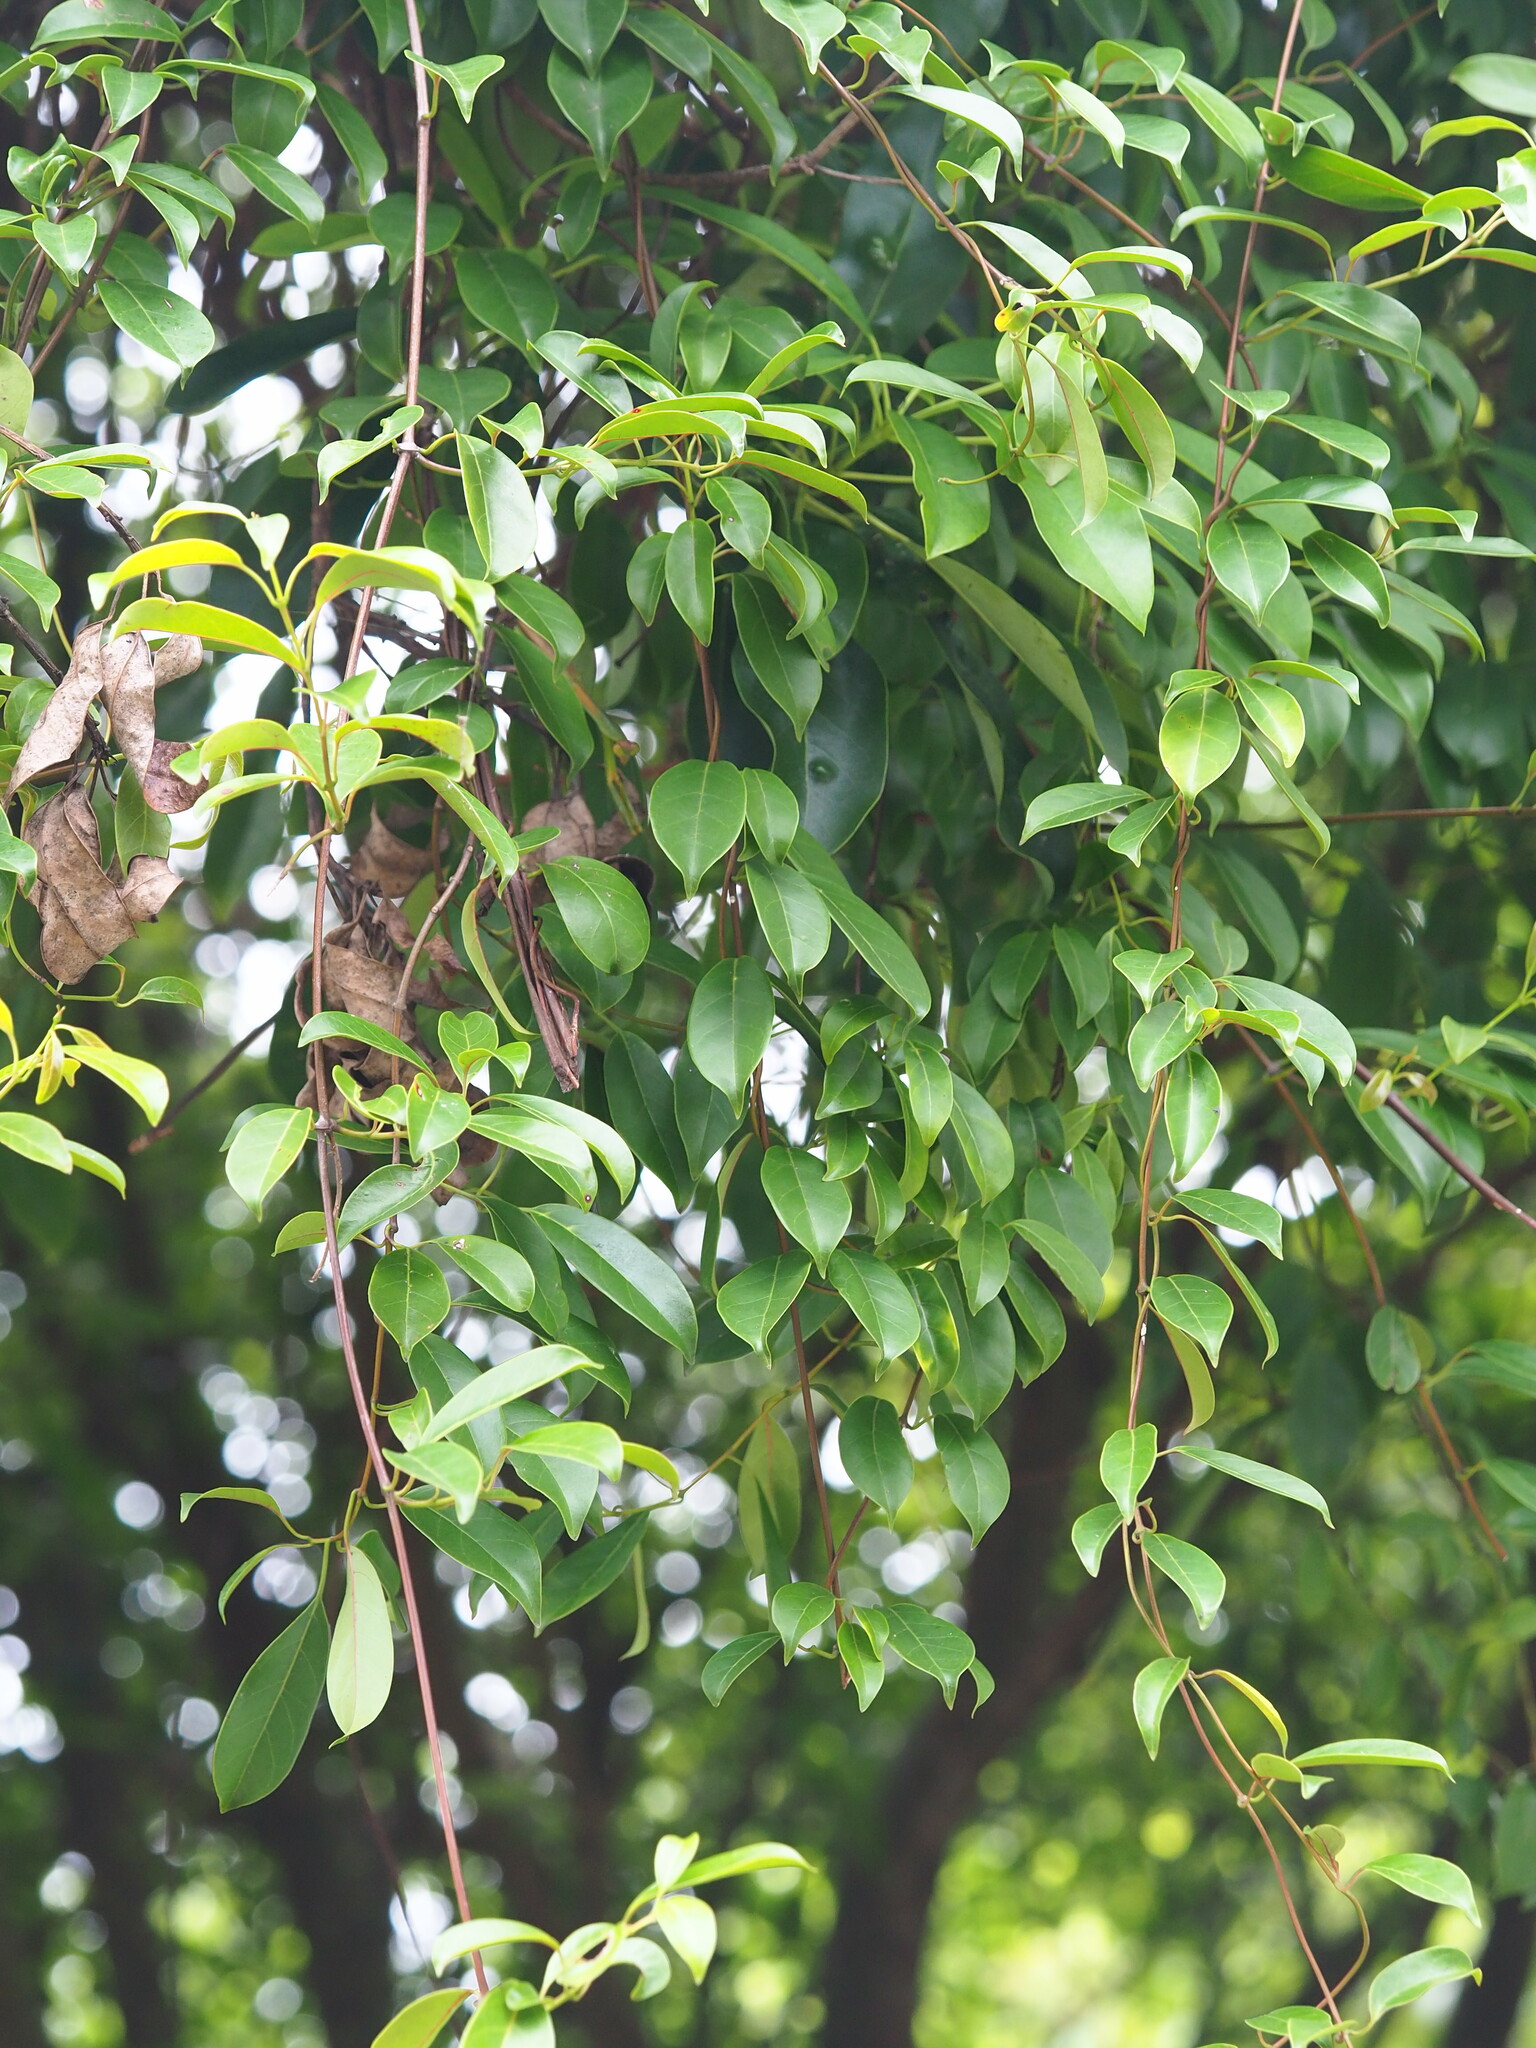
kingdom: Plantae
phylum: Tracheophyta
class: Magnoliopsida
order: Gentianales
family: Apocynaceae
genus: Urceola
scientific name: Urceola rosea
